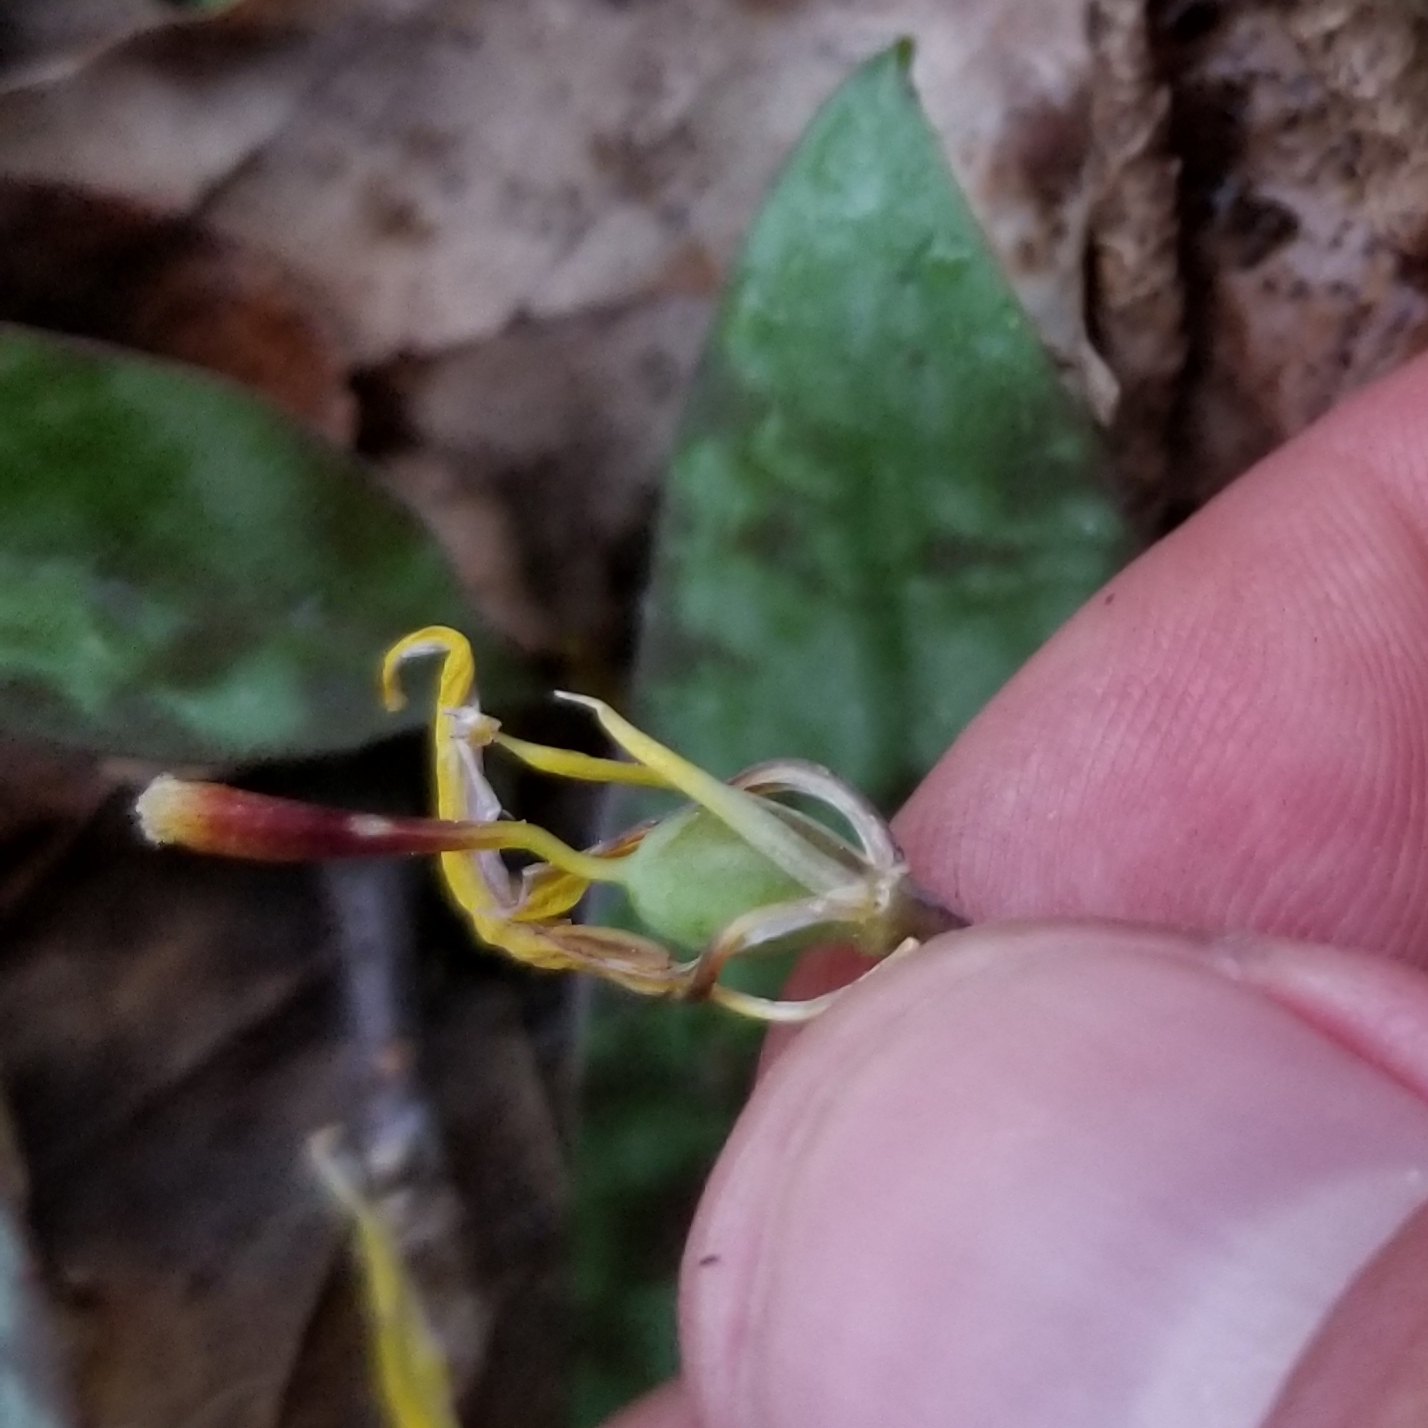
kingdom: Plantae
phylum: Tracheophyta
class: Liliopsida
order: Liliales
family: Liliaceae
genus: Erythronium
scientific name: Erythronium americanum
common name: Yellow adder's-tongue
